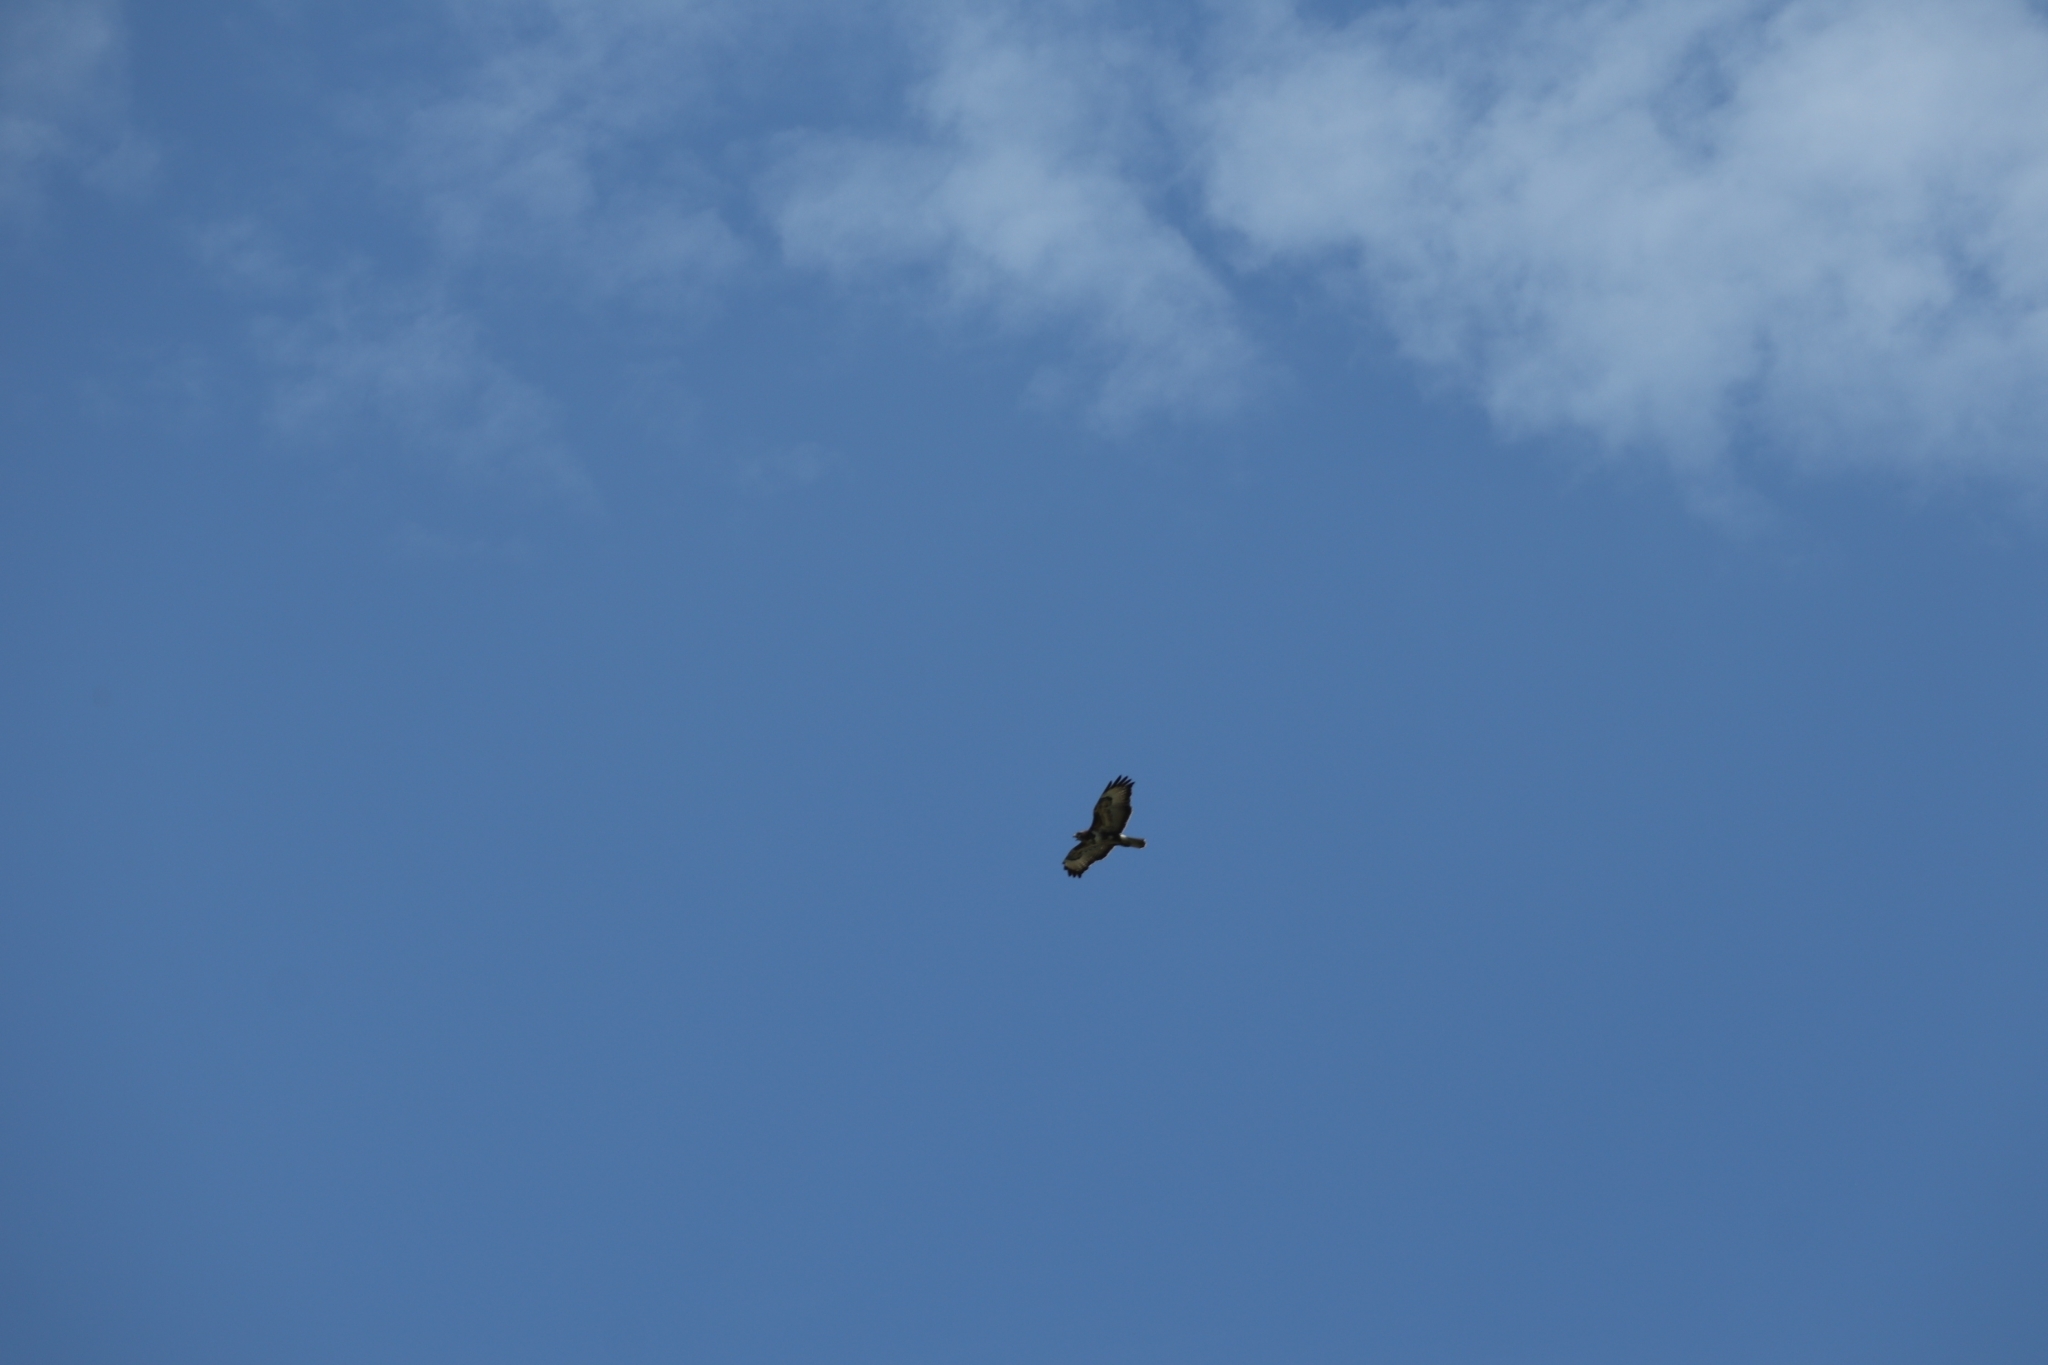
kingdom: Animalia
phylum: Chordata
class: Aves
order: Accipitriformes
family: Accipitridae
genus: Buteo
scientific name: Buteo buteo
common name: Common buzzard
